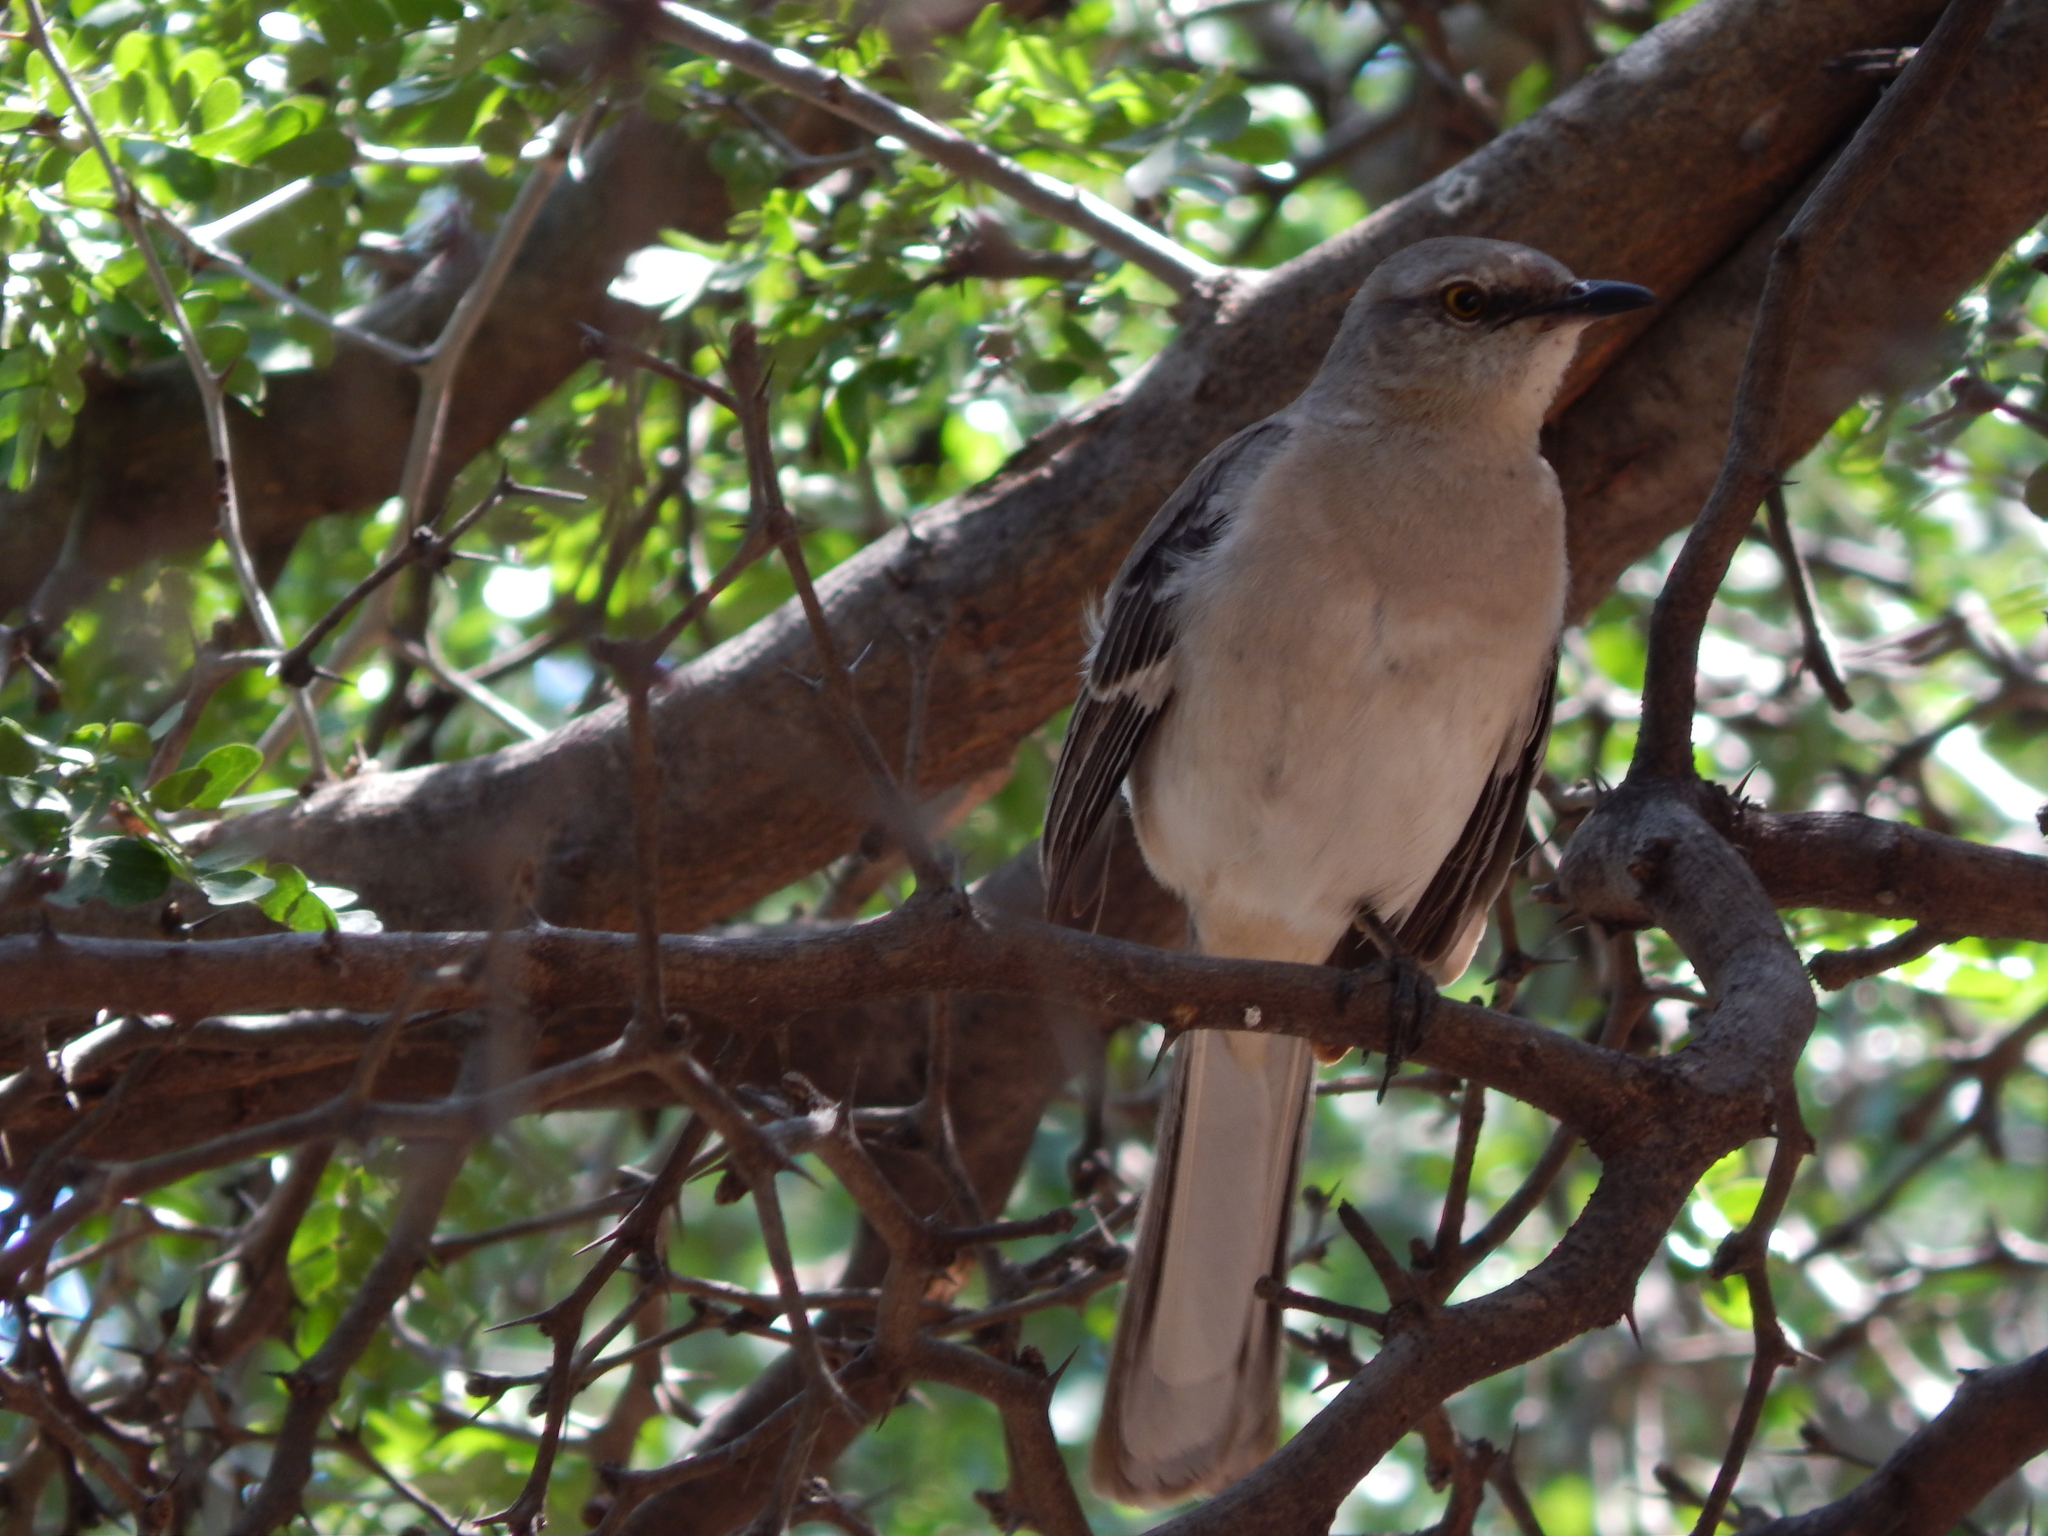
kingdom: Animalia
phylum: Chordata
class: Aves
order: Passeriformes
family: Mimidae
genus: Mimus
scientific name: Mimus polyglottos
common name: Northern mockingbird
